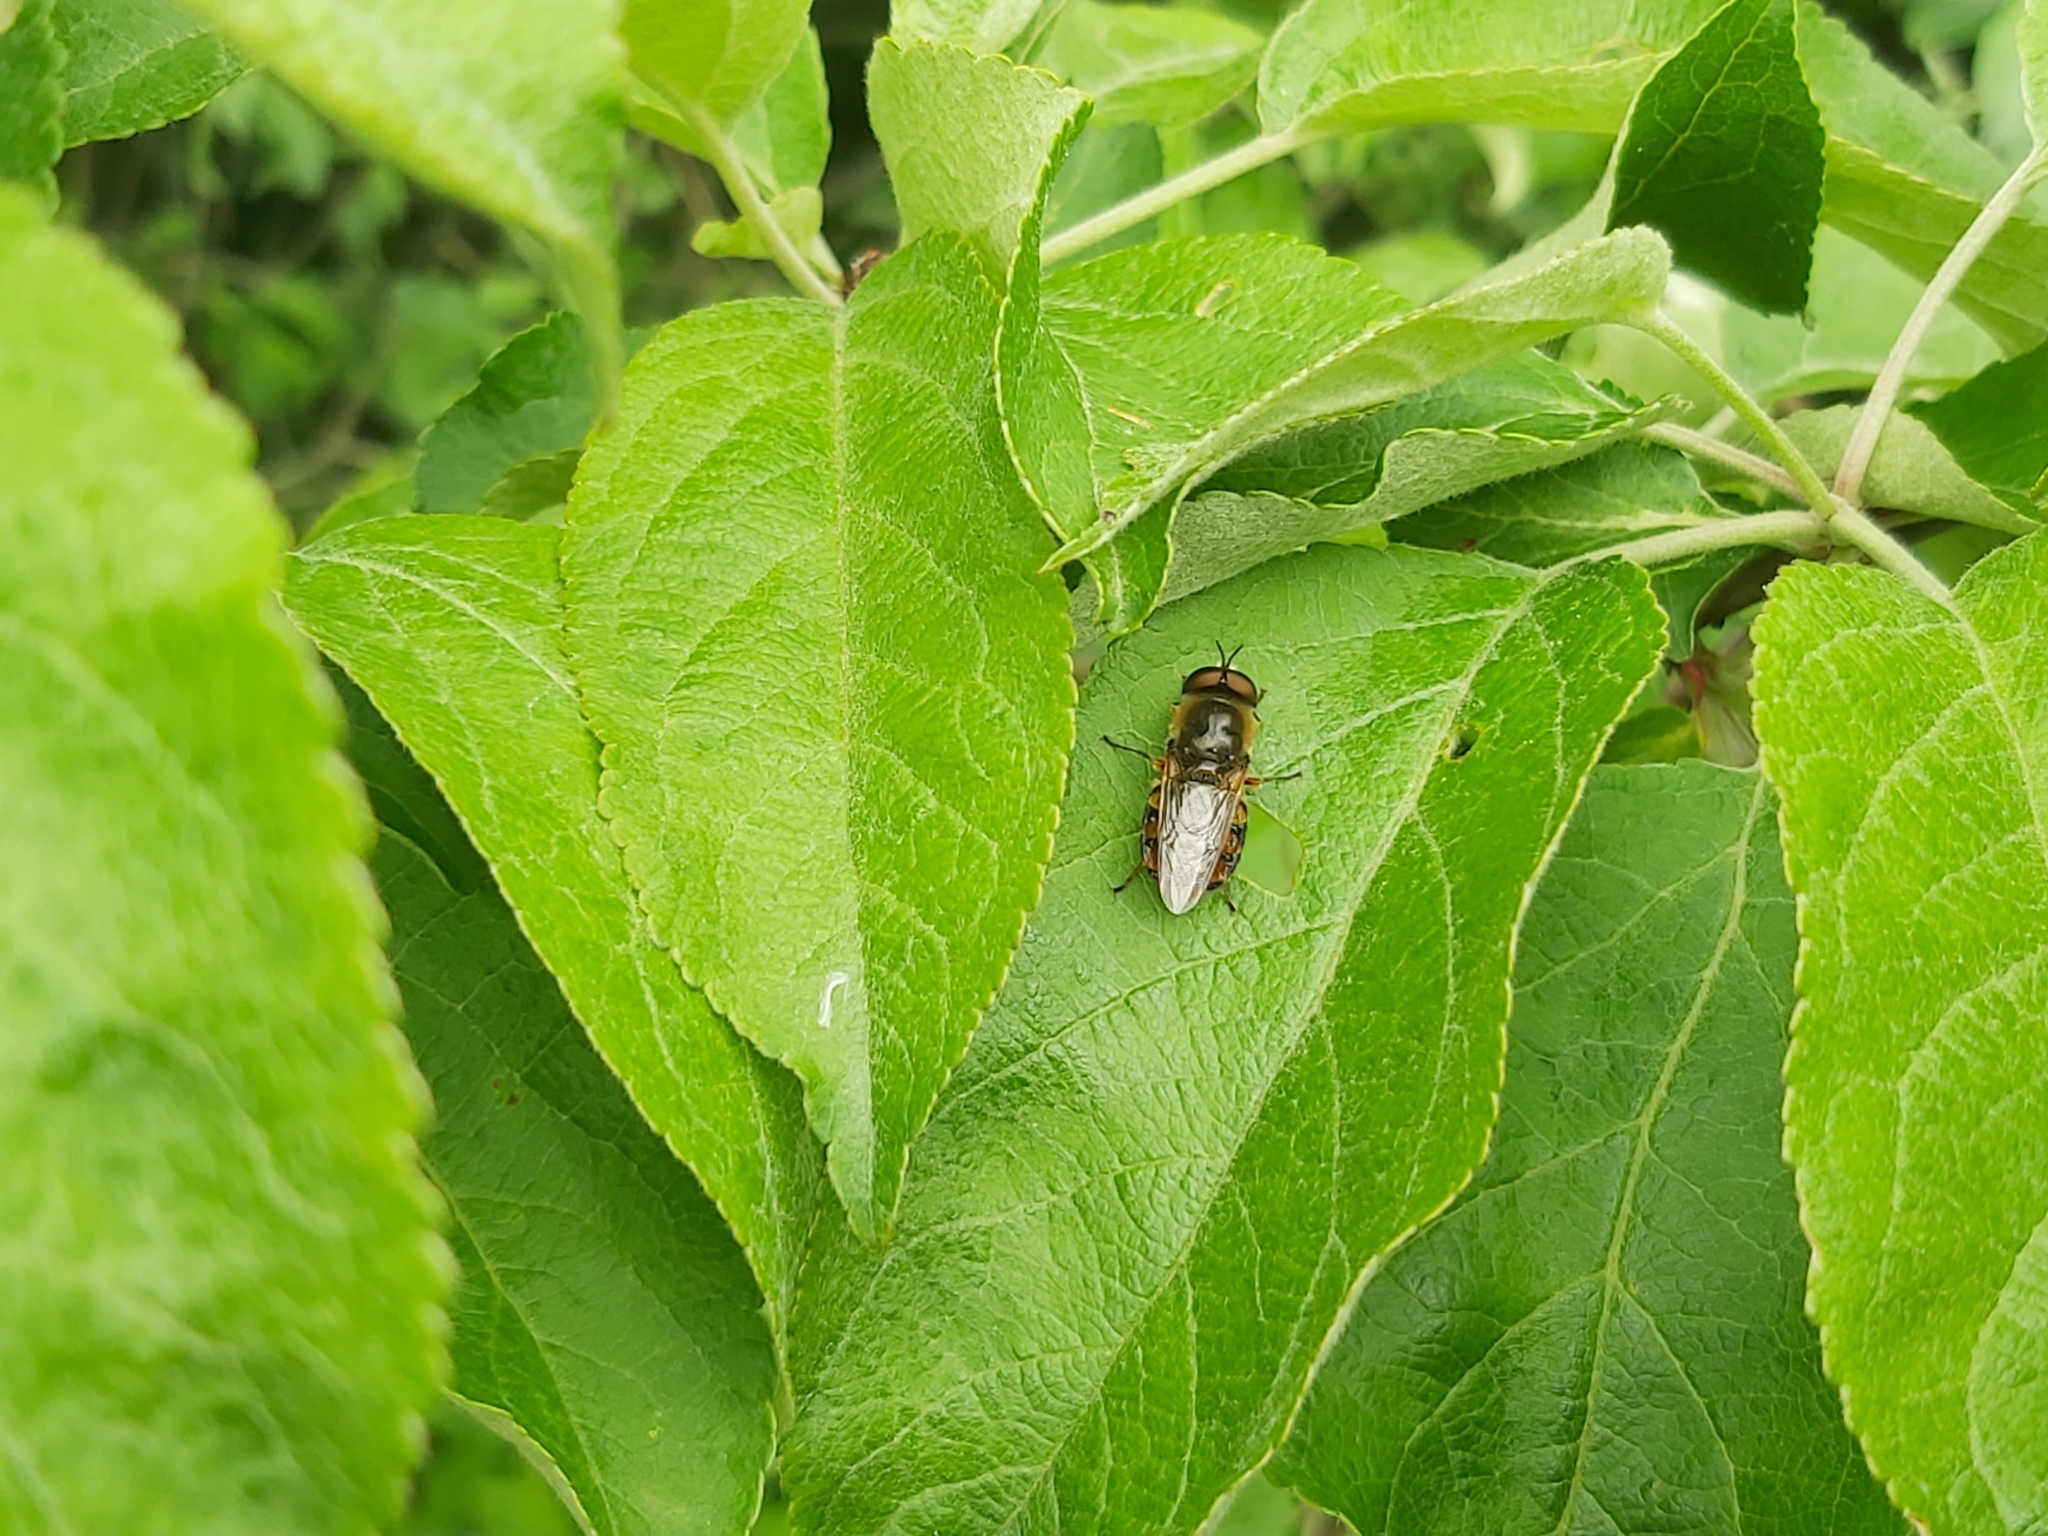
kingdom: Animalia
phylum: Arthropoda
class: Insecta
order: Diptera
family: Stratiomyidae
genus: Odontomyia
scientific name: Odontomyia ornata
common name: Ornate brigadier
